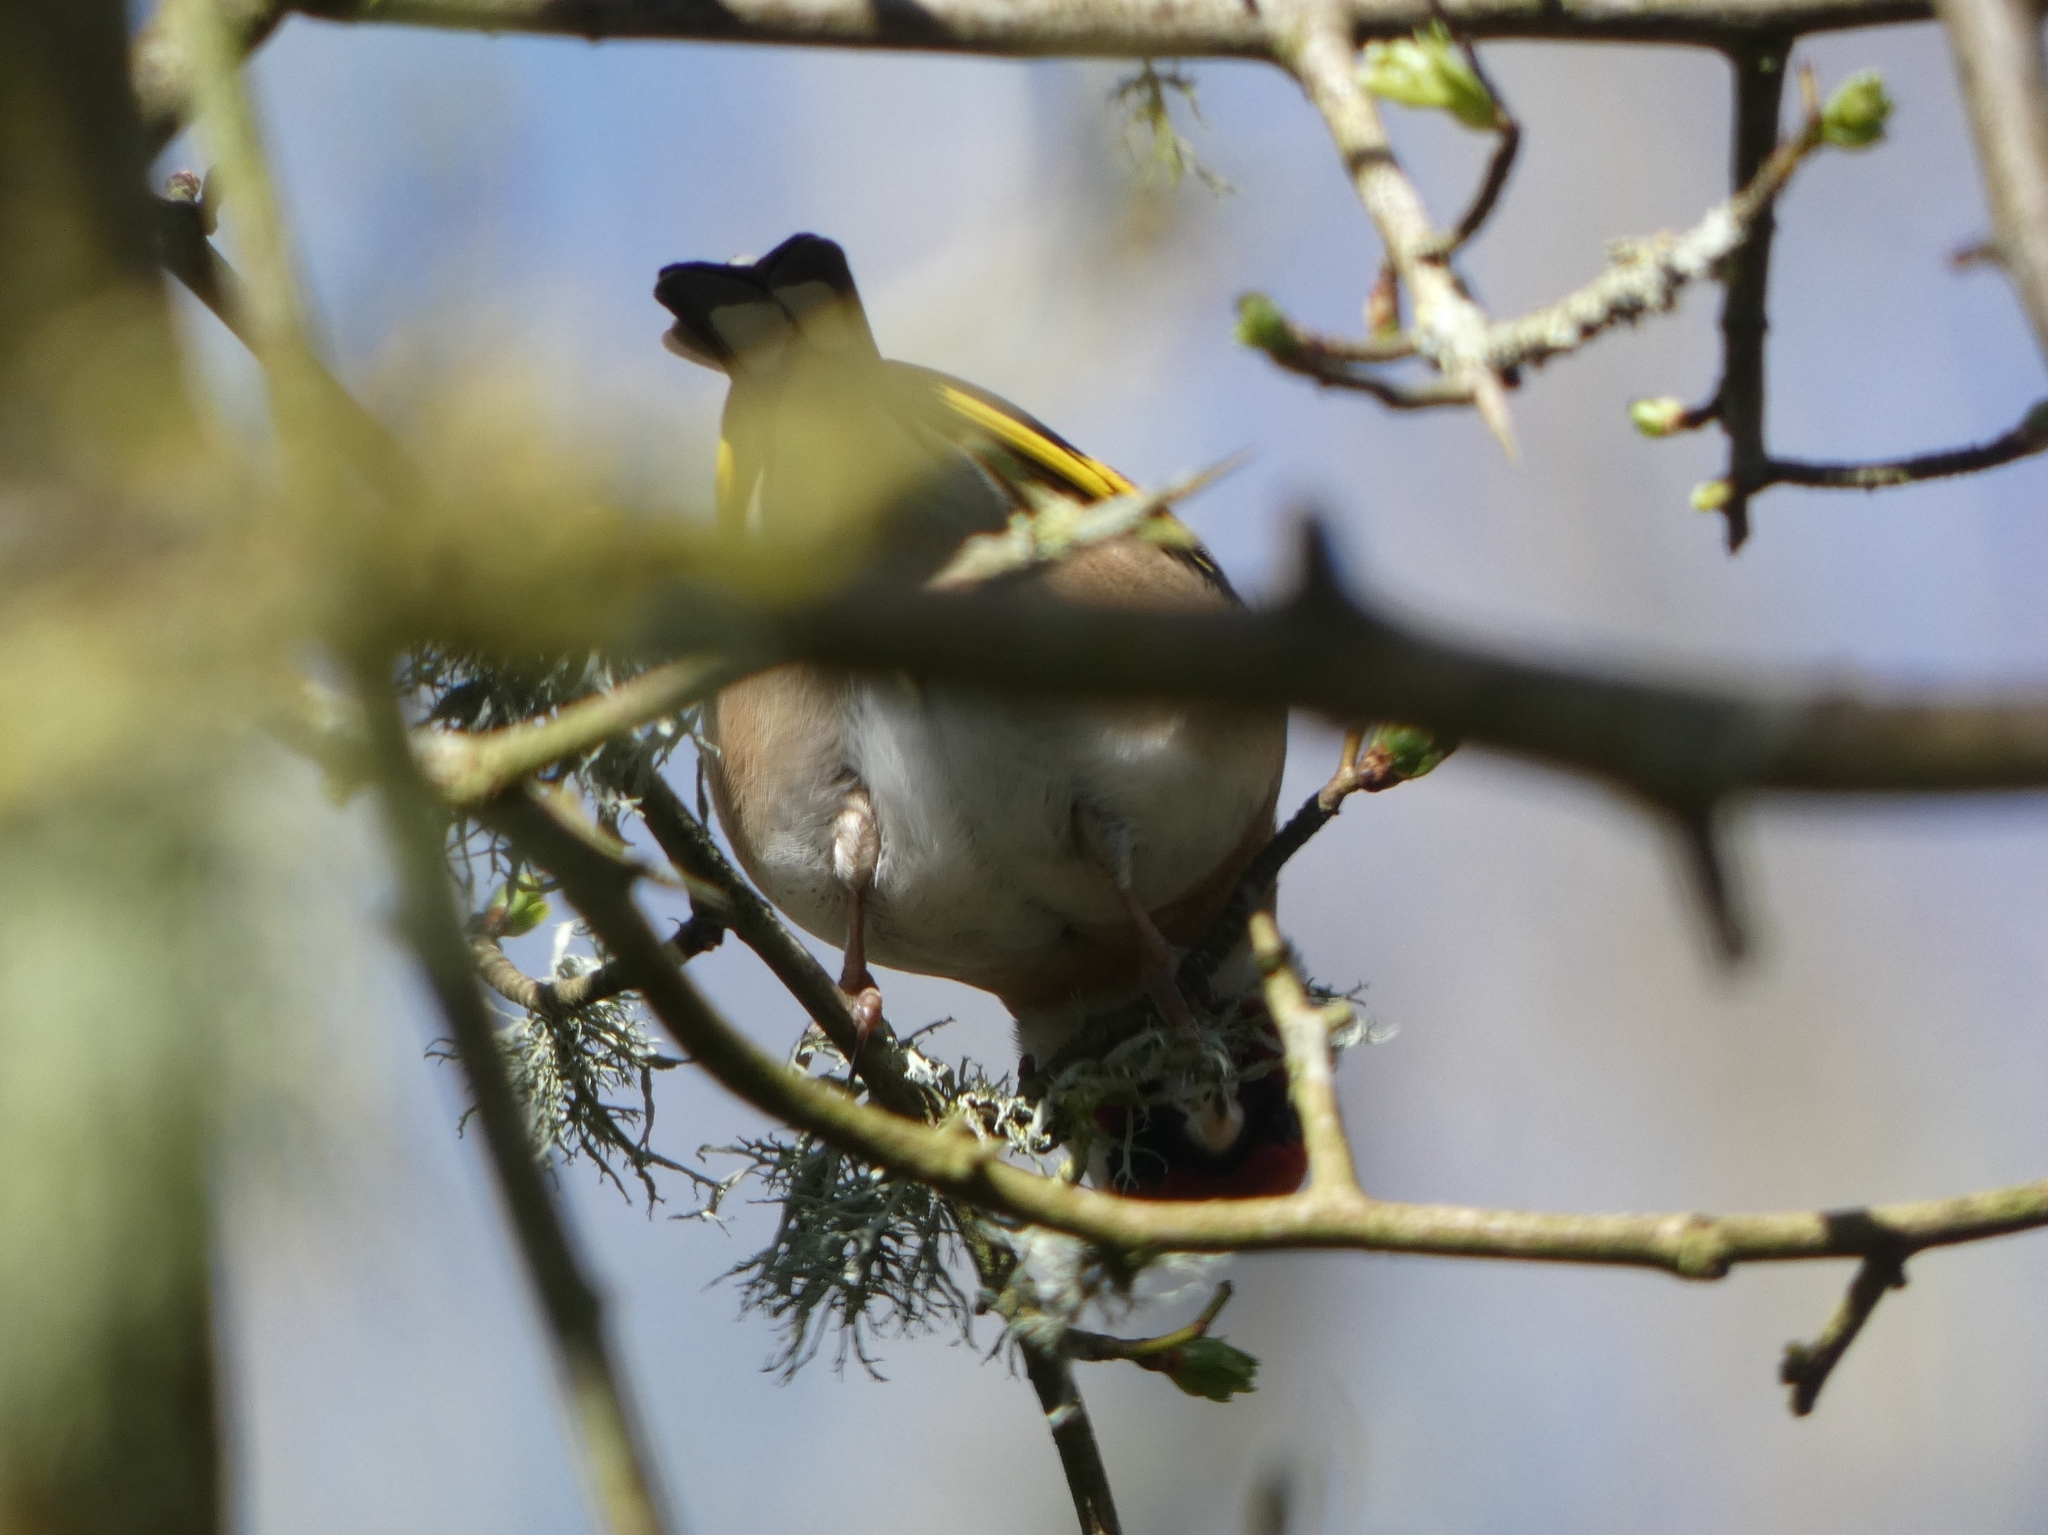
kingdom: Animalia
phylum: Chordata
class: Aves
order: Passeriformes
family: Fringillidae
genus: Carduelis
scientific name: Carduelis carduelis
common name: European goldfinch
